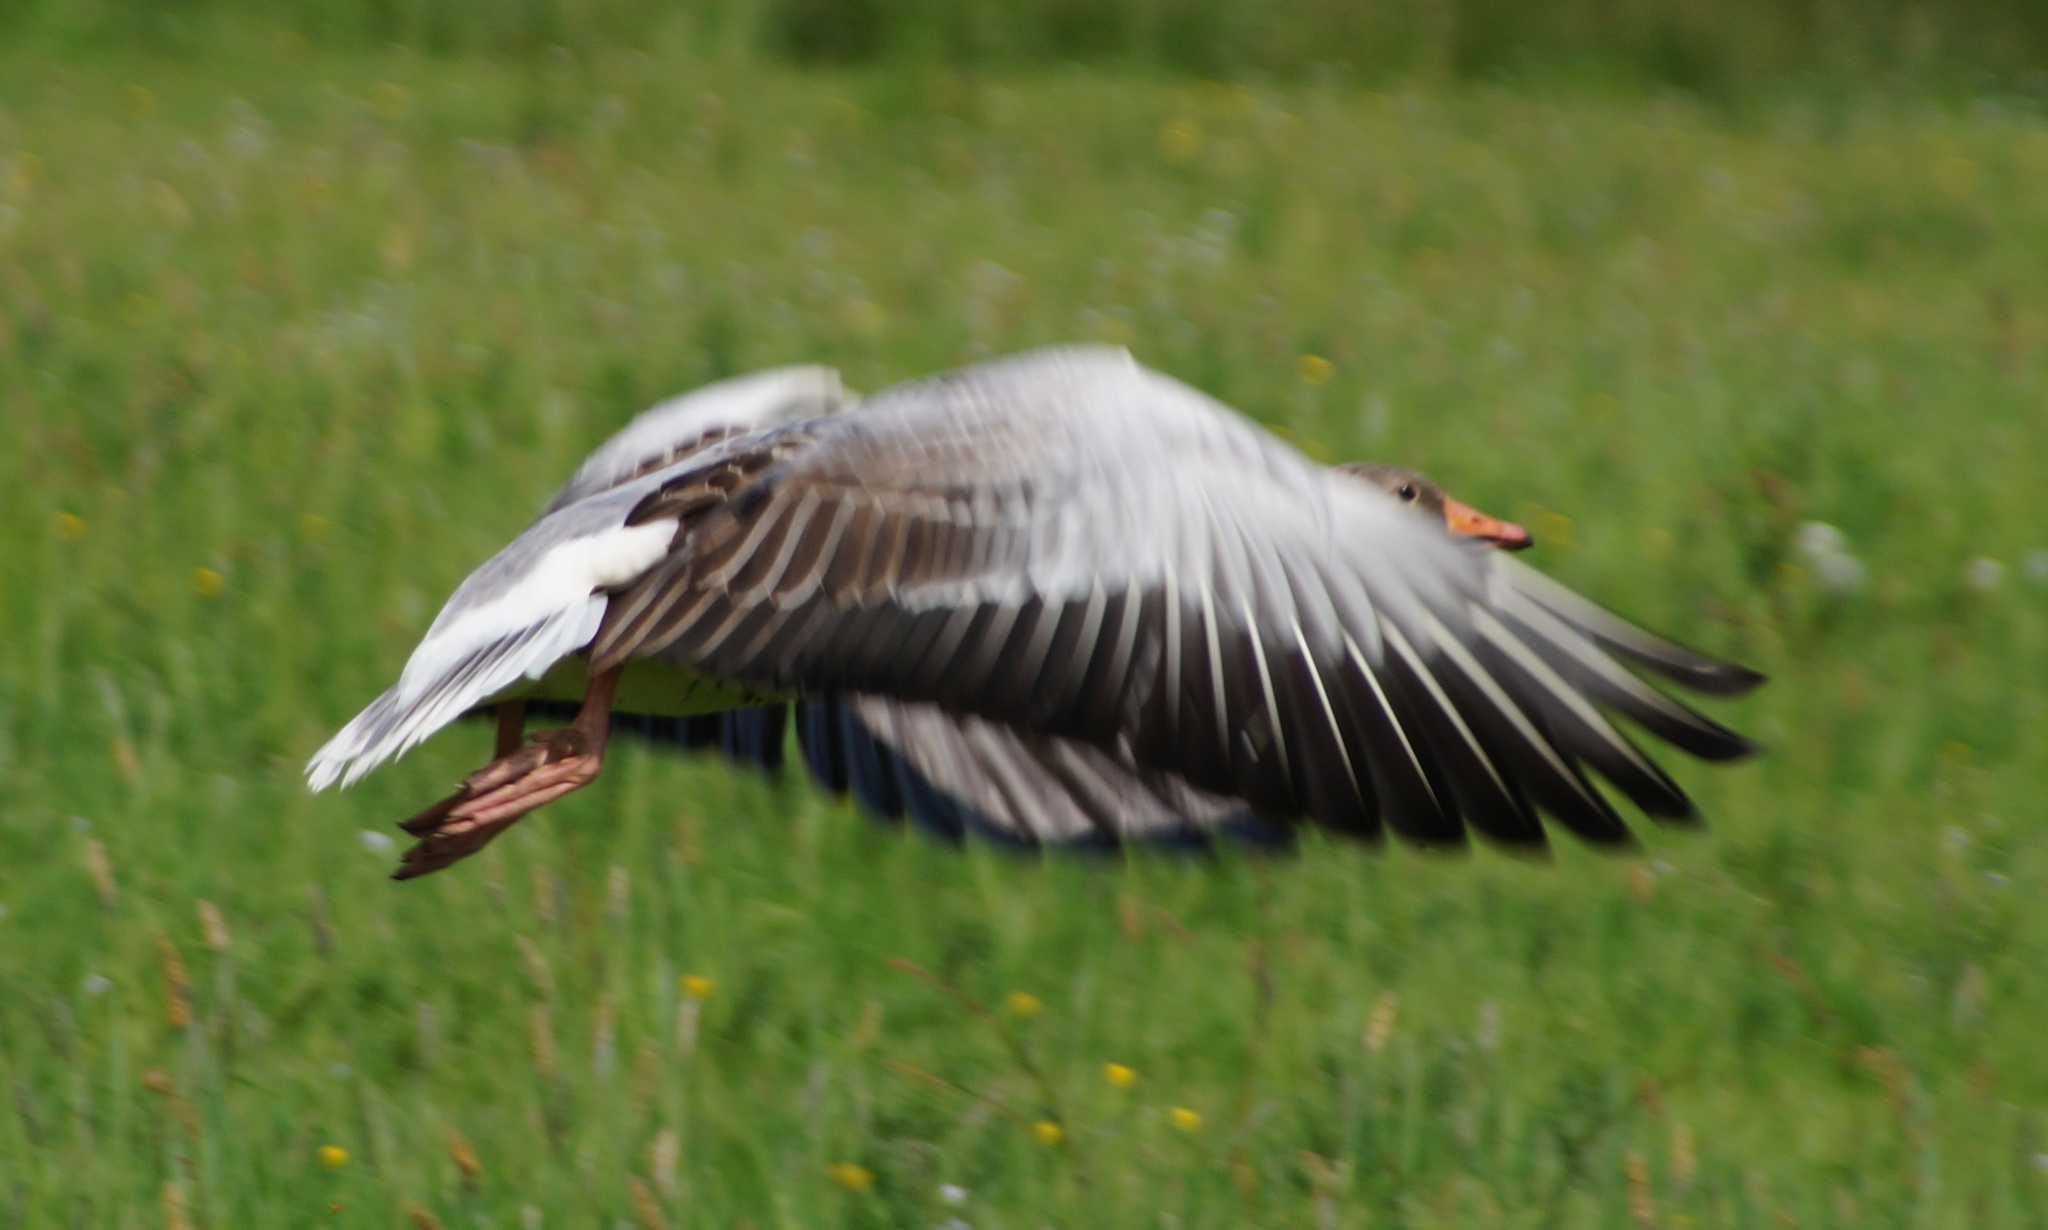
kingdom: Animalia
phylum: Chordata
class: Aves
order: Anseriformes
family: Anatidae
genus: Anser
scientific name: Anser anser
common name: Greylag goose
